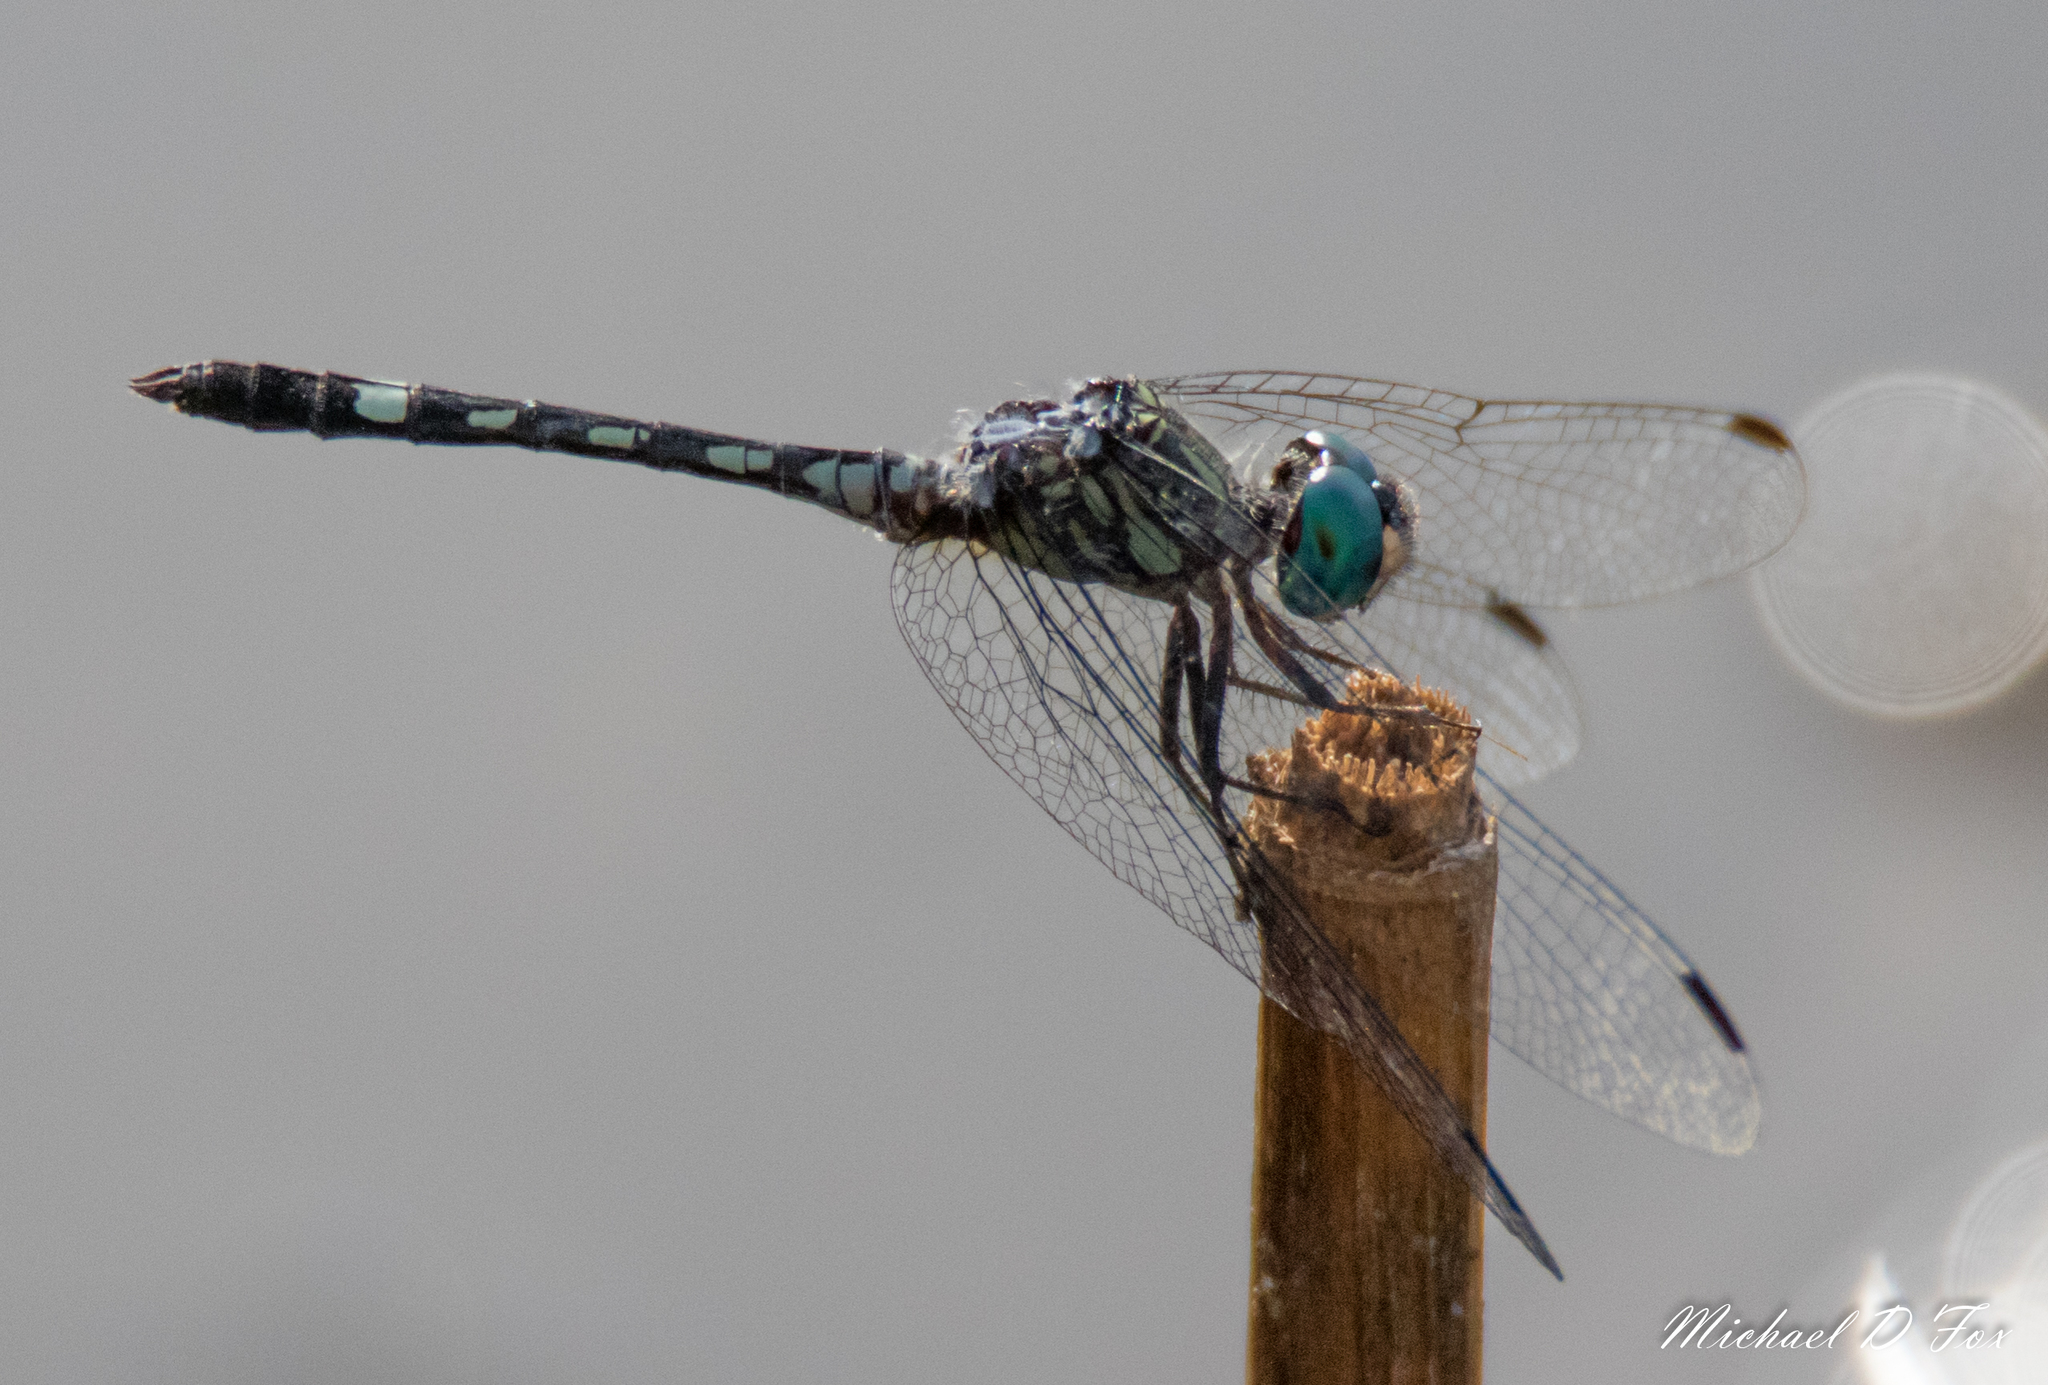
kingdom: Animalia
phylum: Arthropoda
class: Insecta
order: Odonata
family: Libellulidae
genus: Micrathyria
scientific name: Micrathyria hagenii
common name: Thornbush dasher
